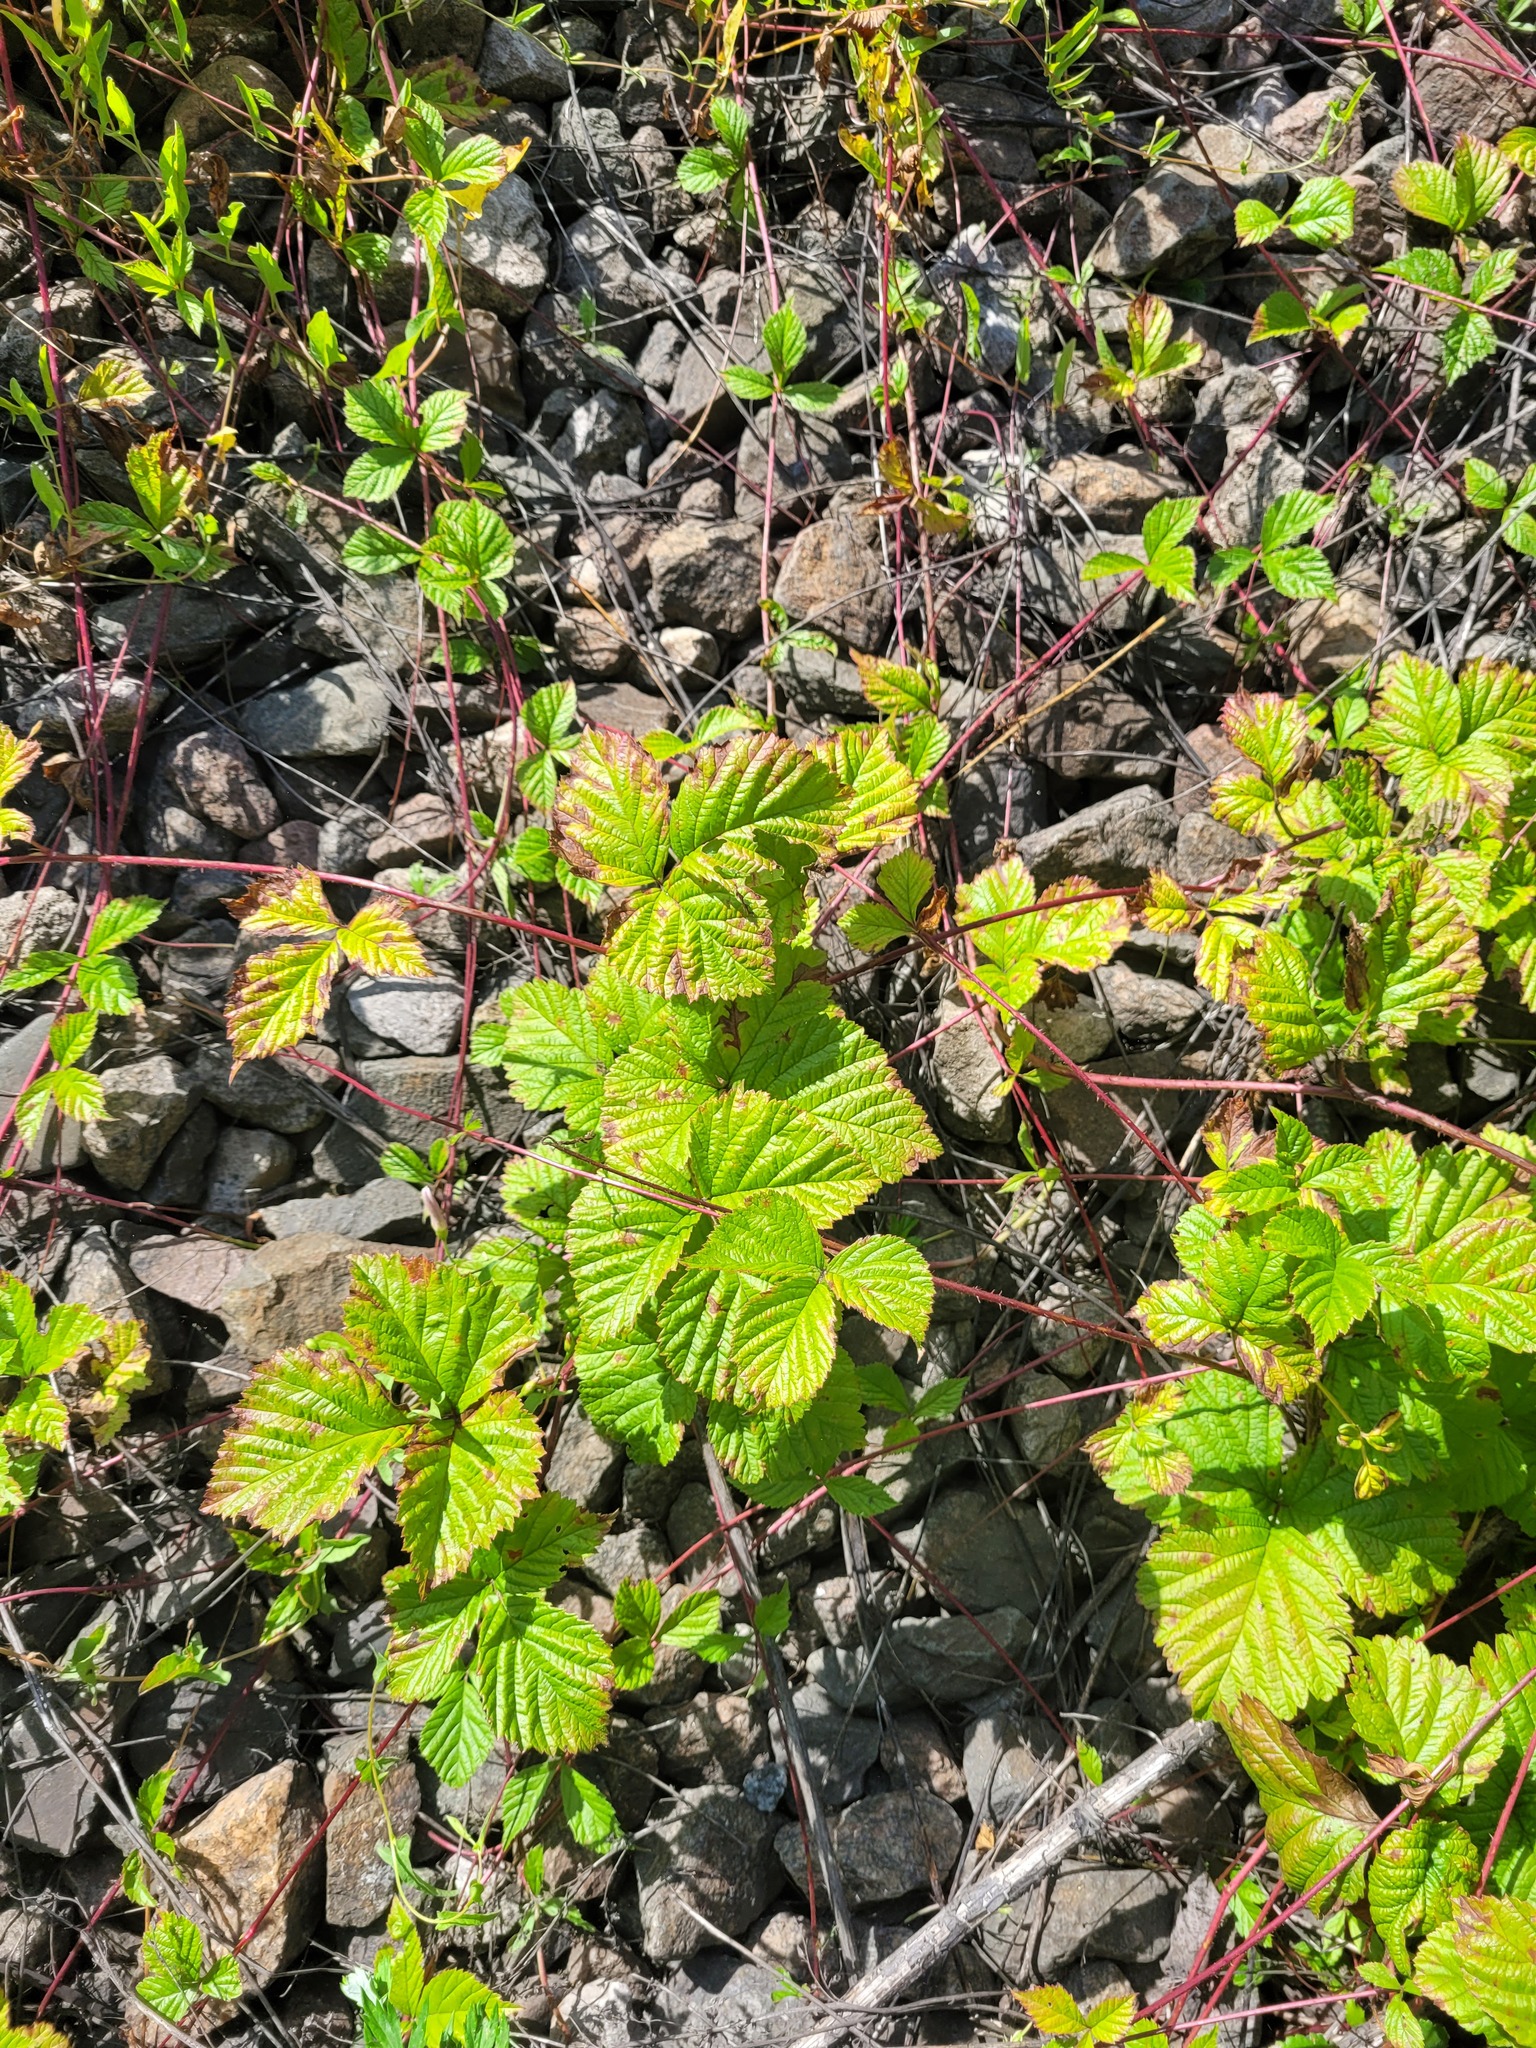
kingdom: Plantae
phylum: Tracheophyta
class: Magnoliopsida
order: Rosales
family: Rosaceae
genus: Rubus
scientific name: Rubus saxatilis
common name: Stone bramble
